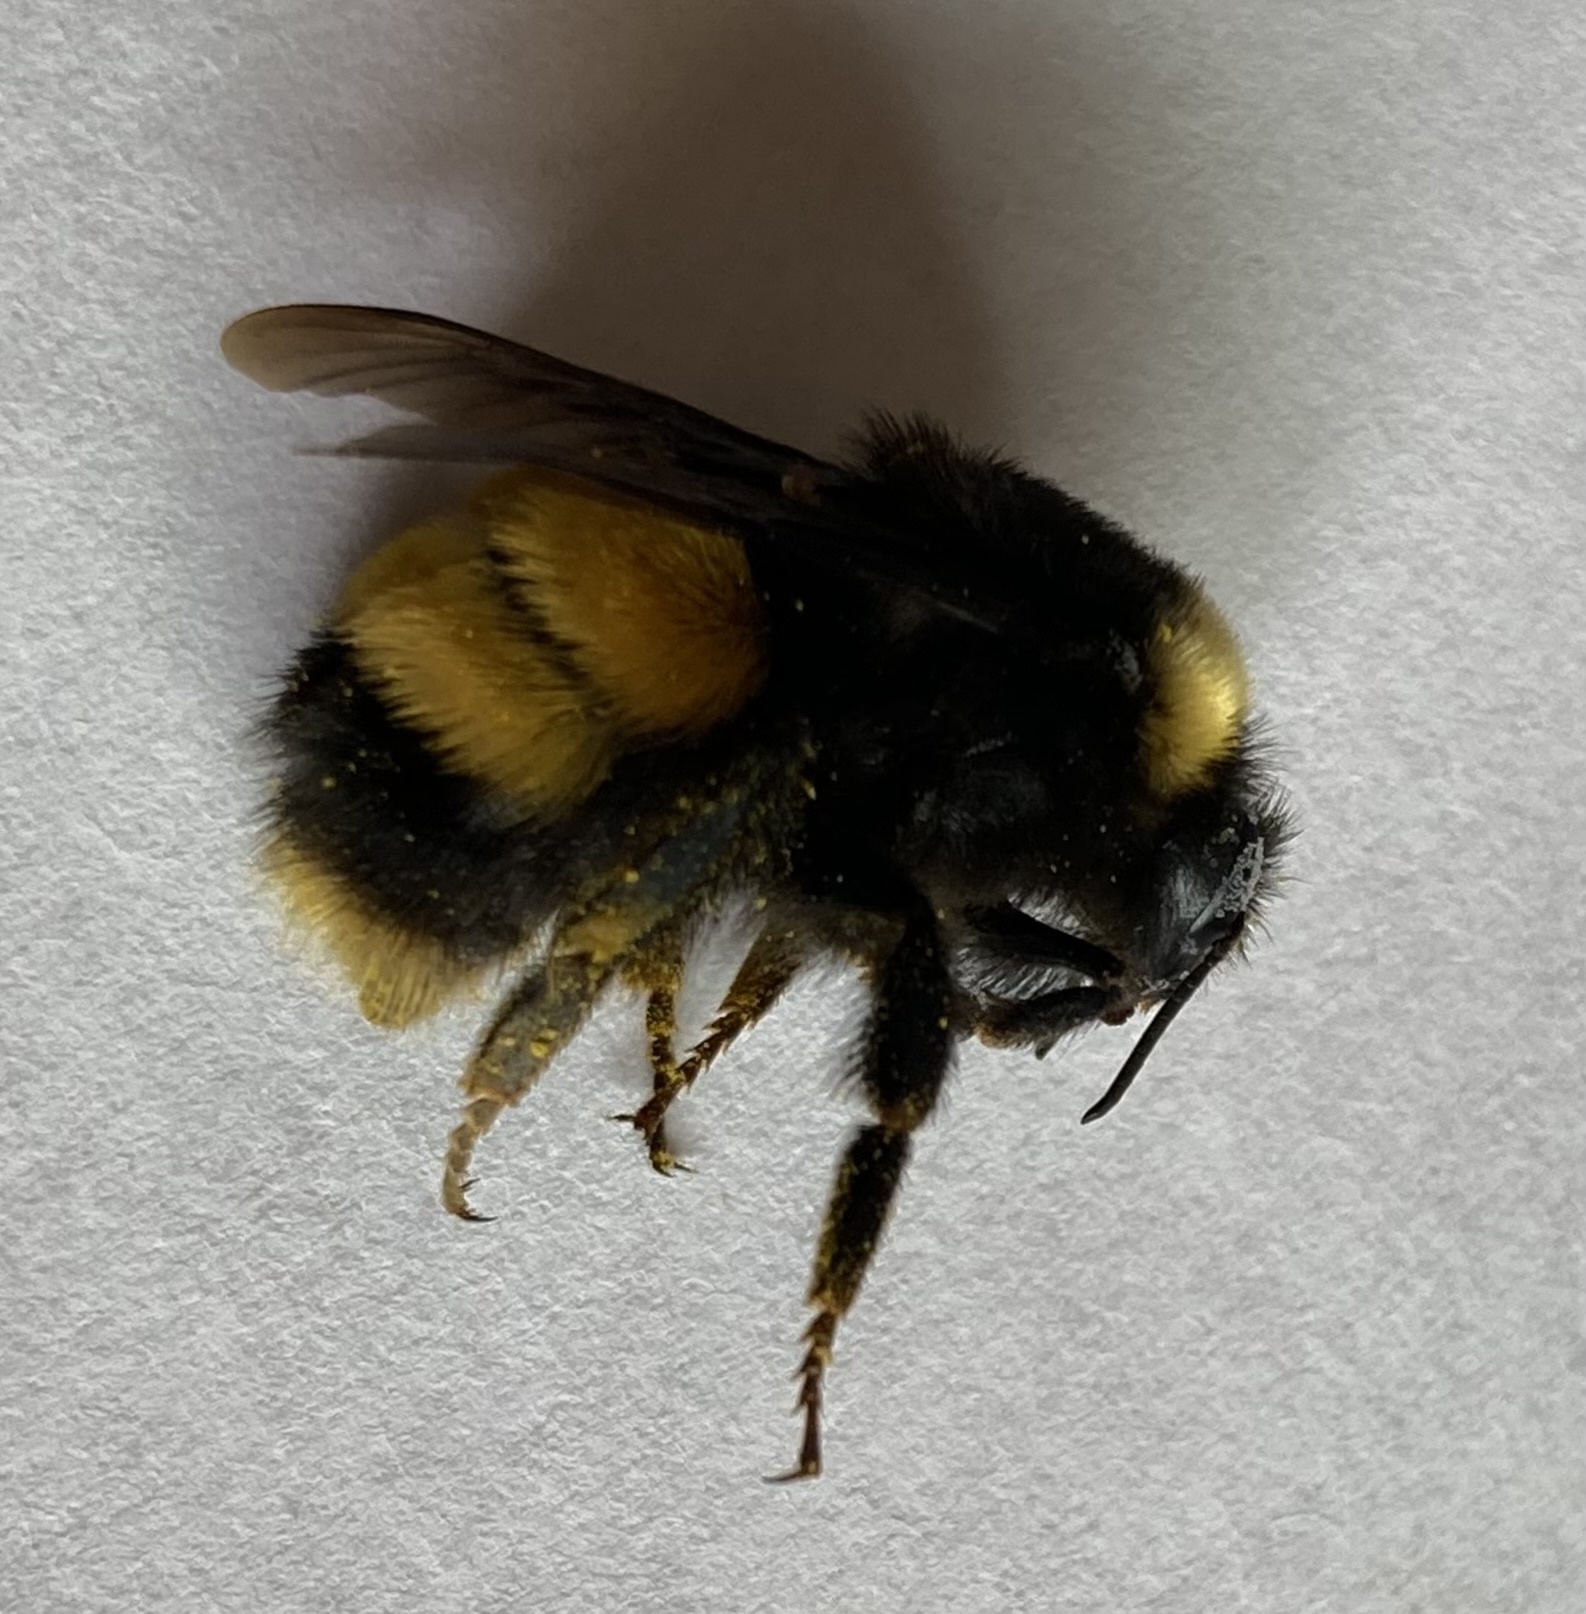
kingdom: Animalia
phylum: Arthropoda
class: Insecta
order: Hymenoptera
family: Apidae
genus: Bombus
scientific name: Bombus terricola
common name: Yellow-banded bumble bee
